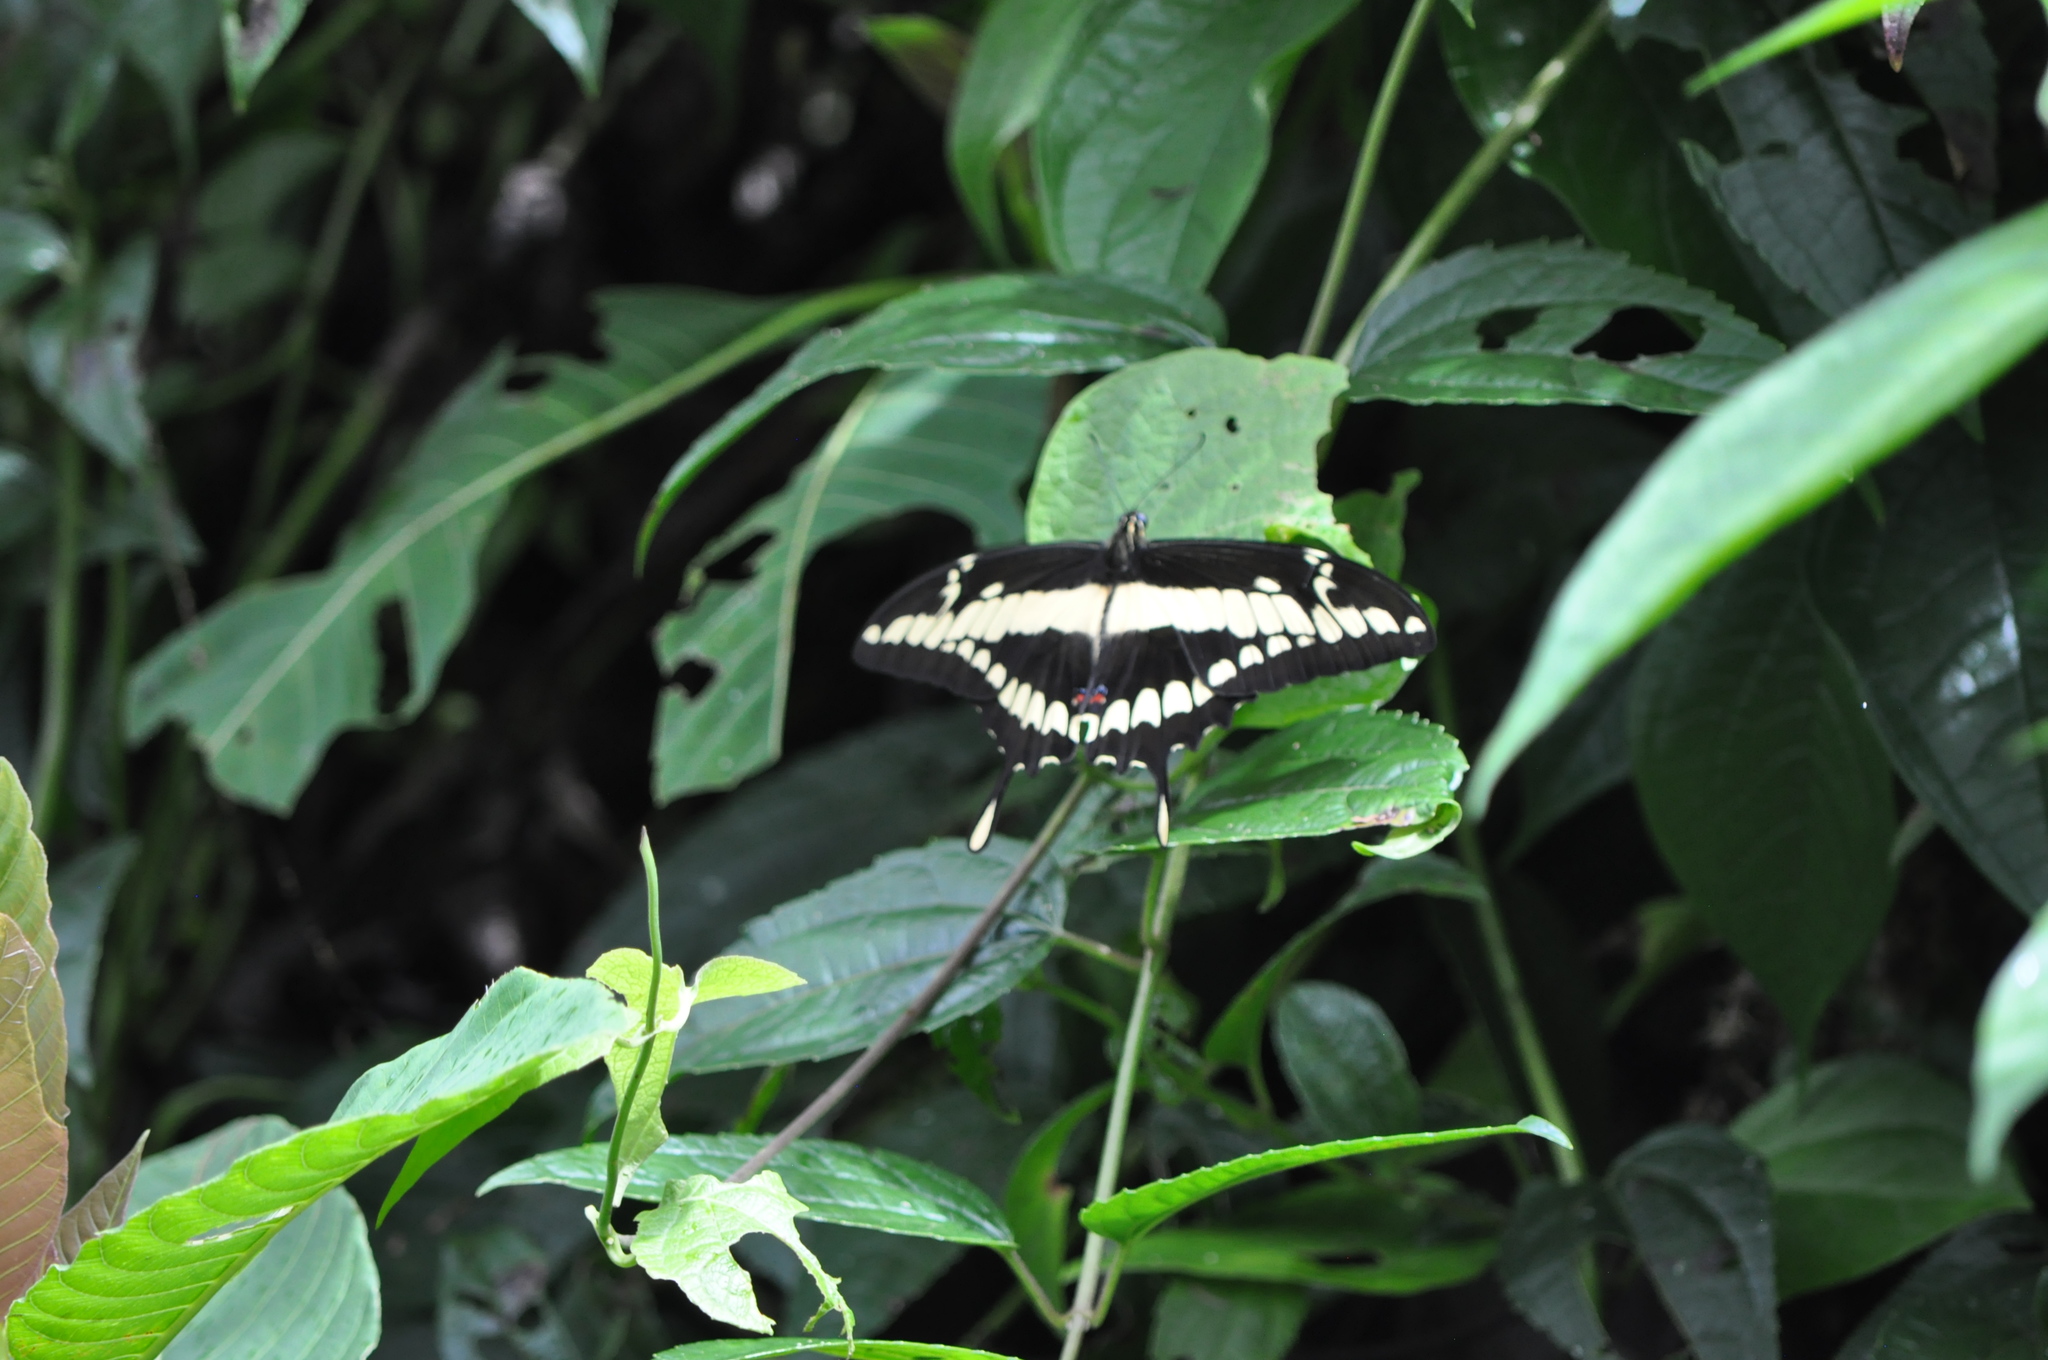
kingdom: Animalia
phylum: Arthropoda
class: Insecta
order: Lepidoptera
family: Papilionidae
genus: Papilio
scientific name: Papilio thoas
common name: King swallowtail
